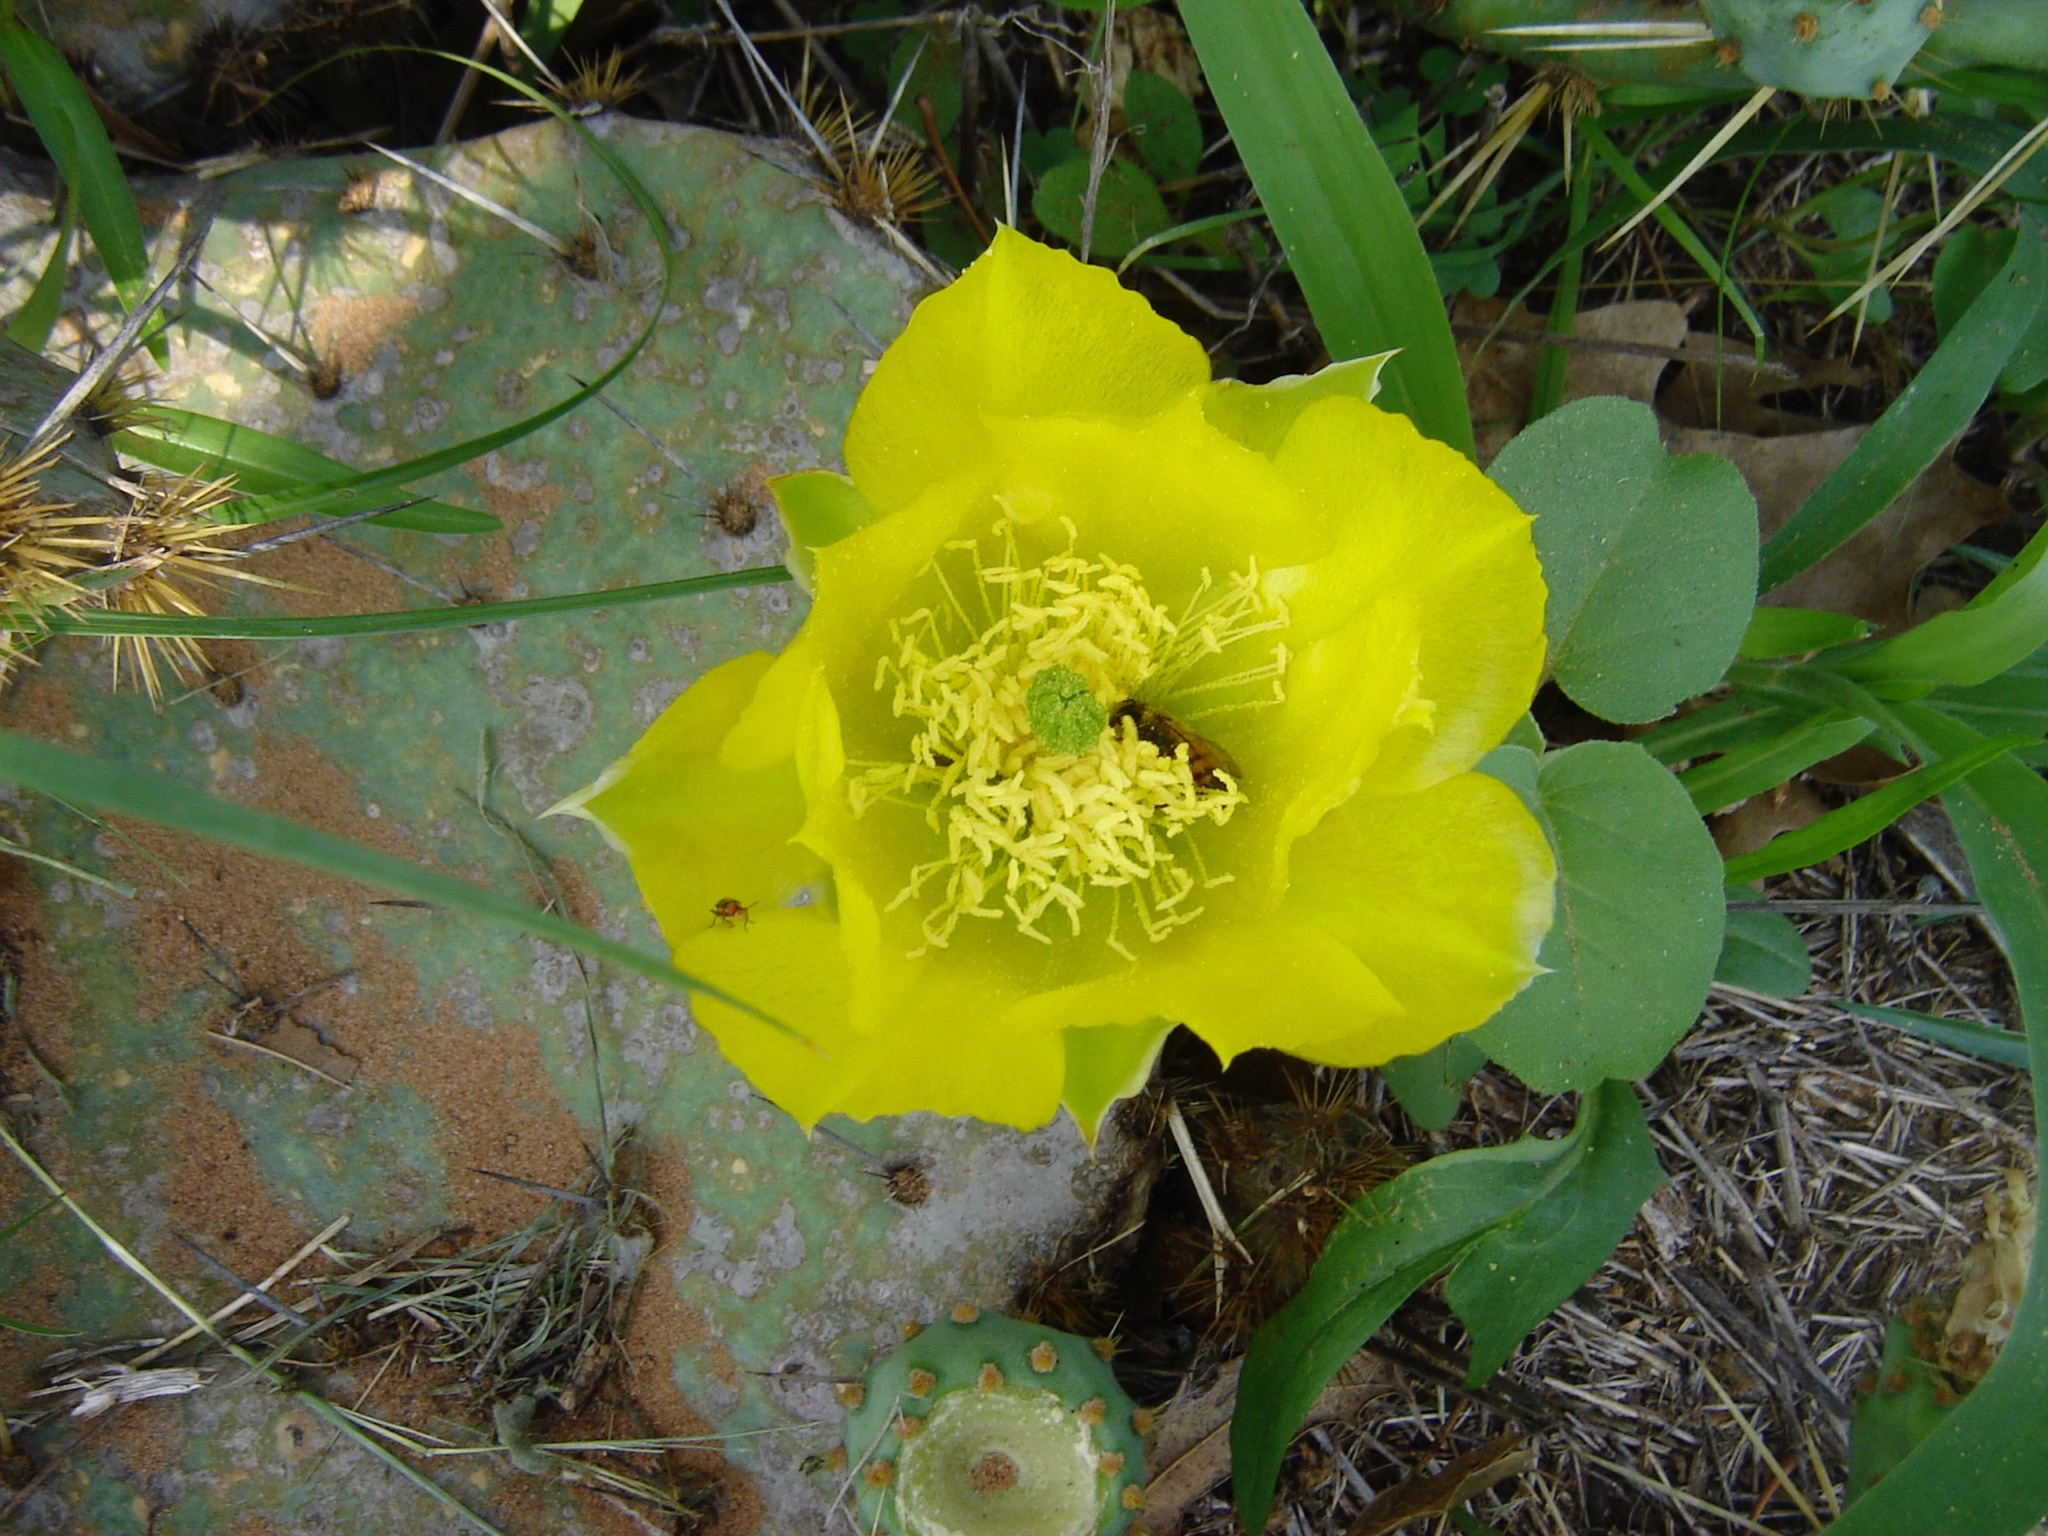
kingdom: Plantae
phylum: Tracheophyta
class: Magnoliopsida
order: Caryophyllales
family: Cactaceae
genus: Opuntia
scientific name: Opuntia engelmannii
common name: Cactus-apple
